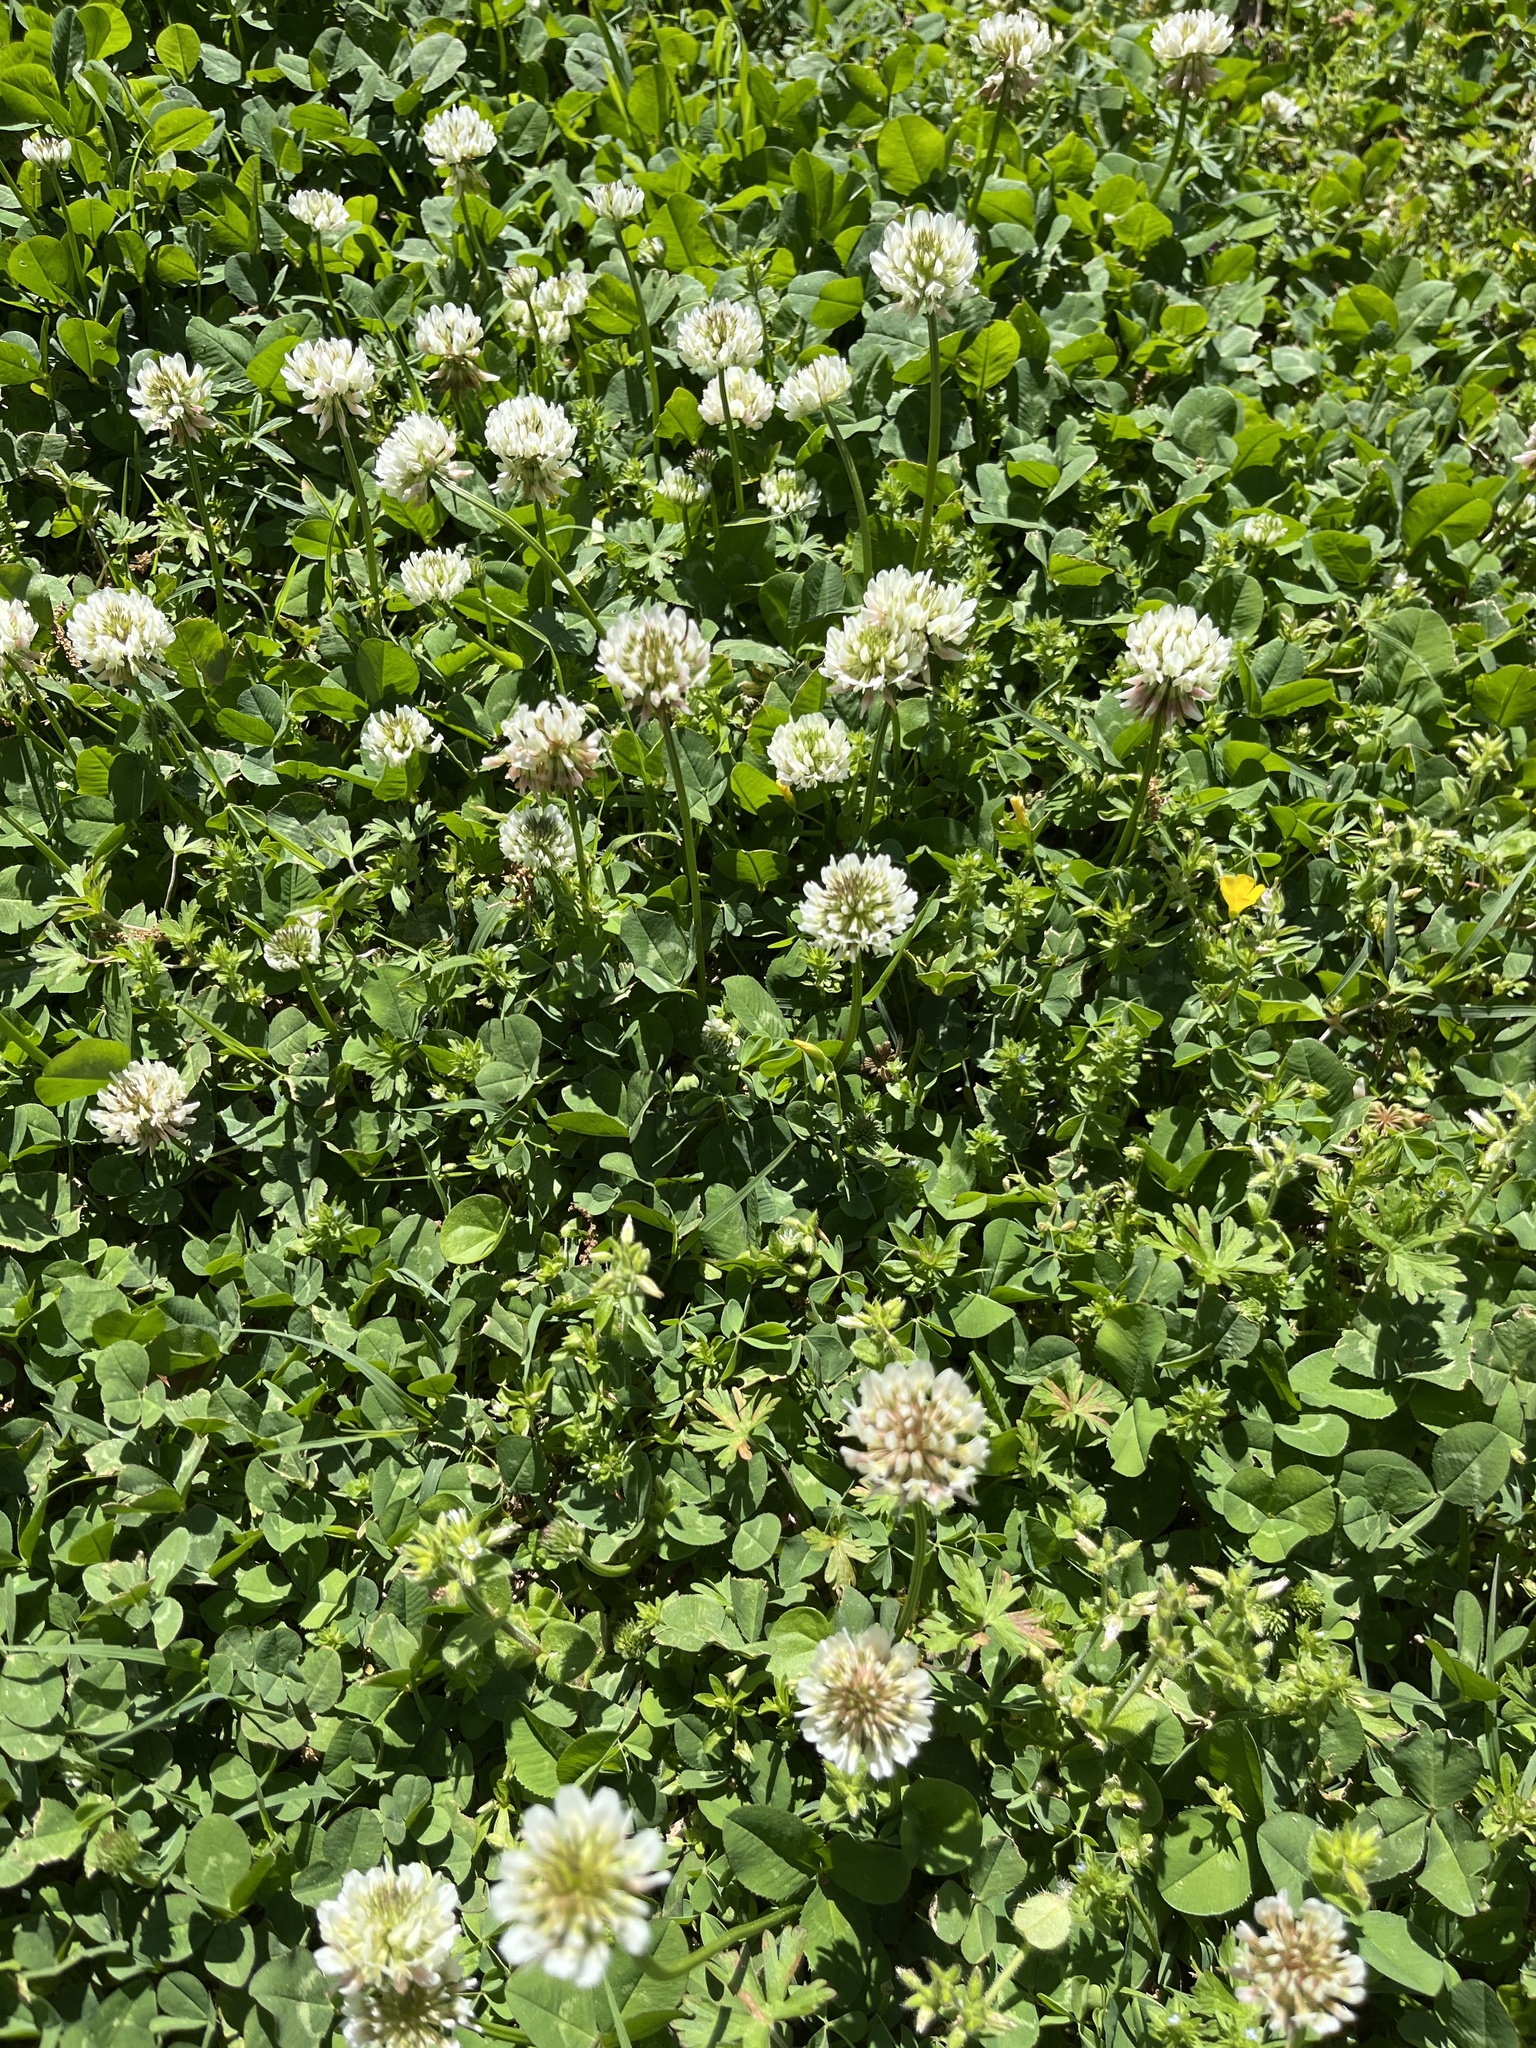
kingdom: Plantae
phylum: Tracheophyta
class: Magnoliopsida
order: Fabales
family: Fabaceae
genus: Trifolium
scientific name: Trifolium repens
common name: White clover
